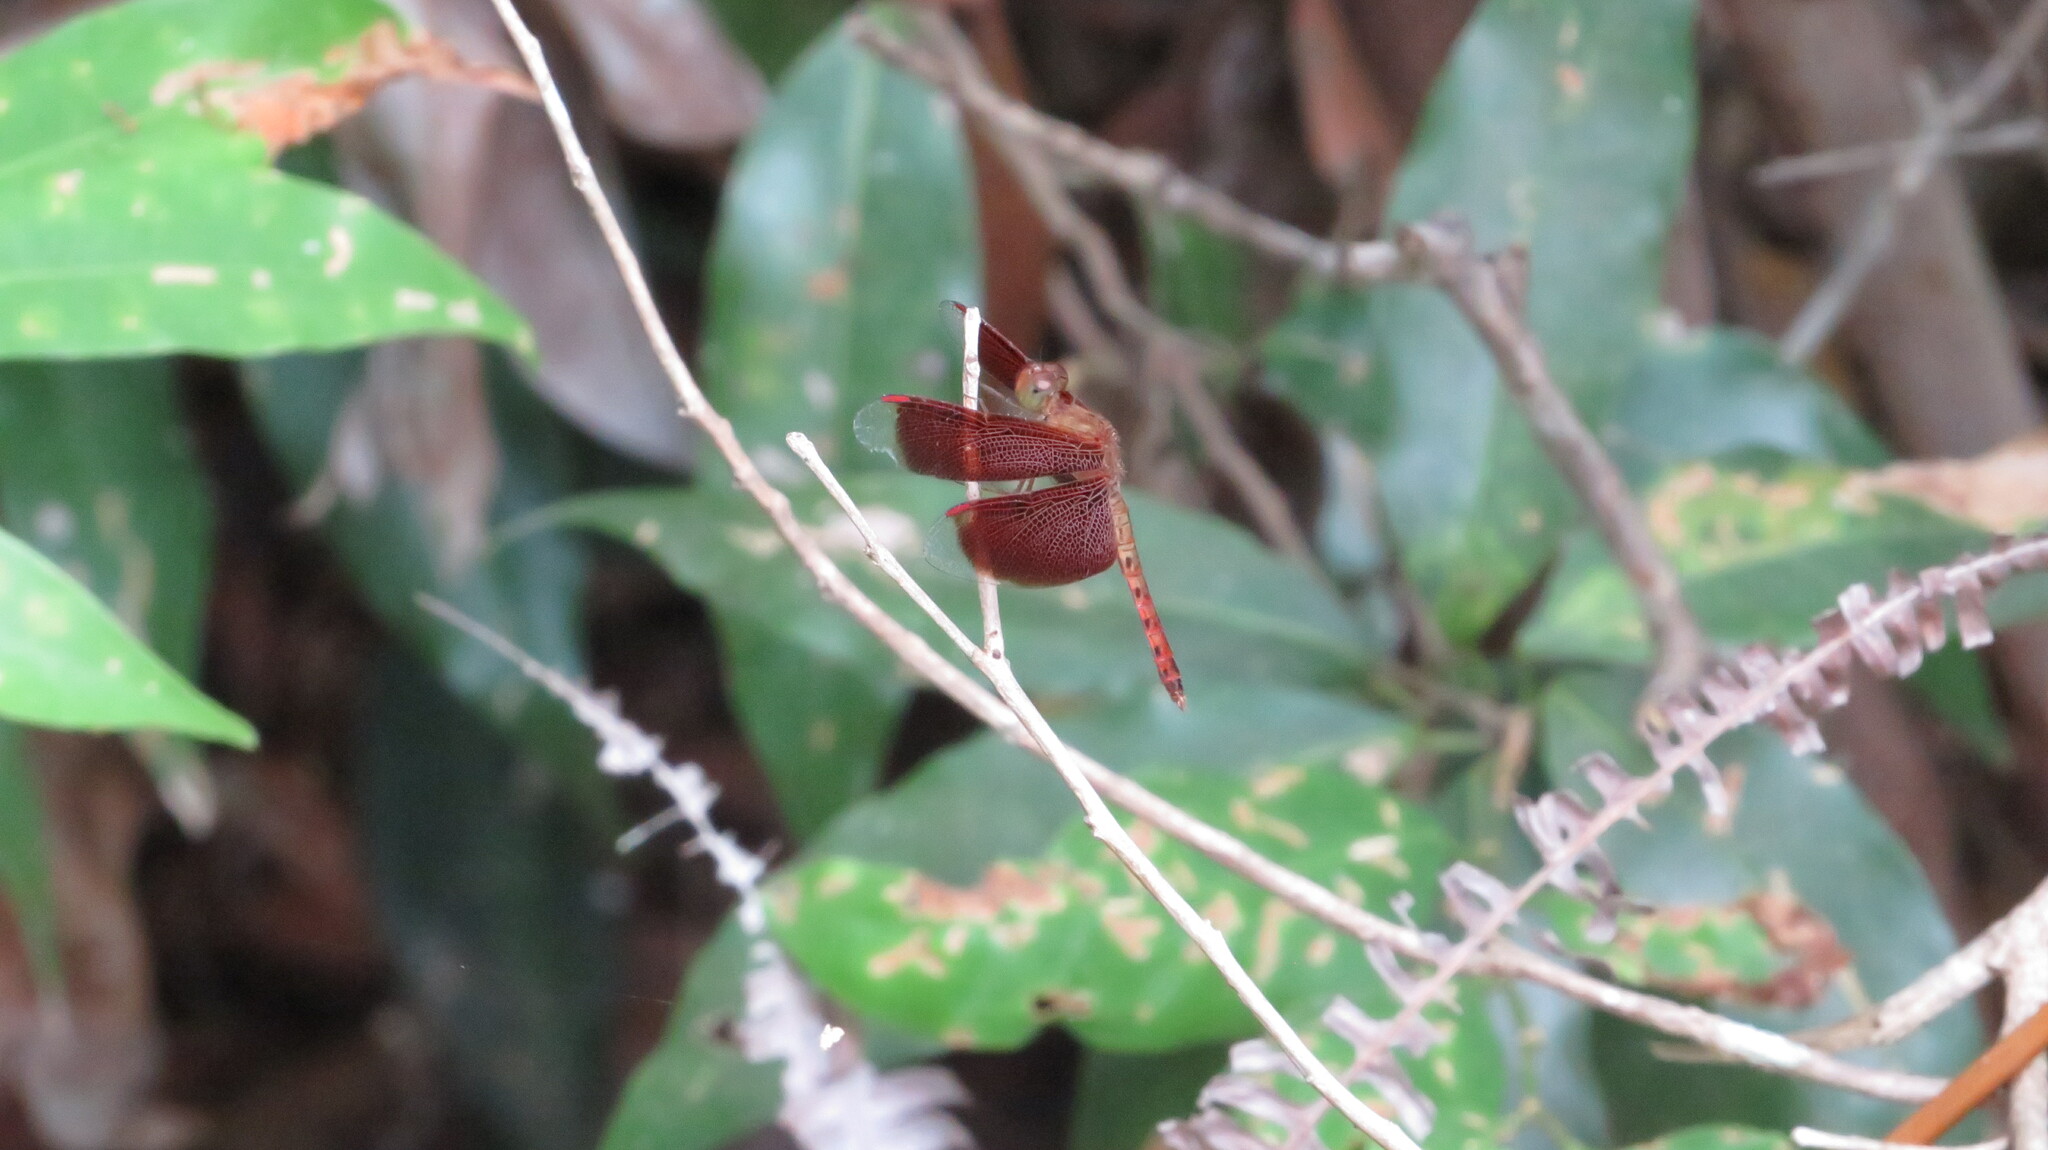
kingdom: Animalia
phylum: Arthropoda
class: Insecta
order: Odonata
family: Libellulidae
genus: Neurothemis
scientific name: Neurothemis fluctuans
